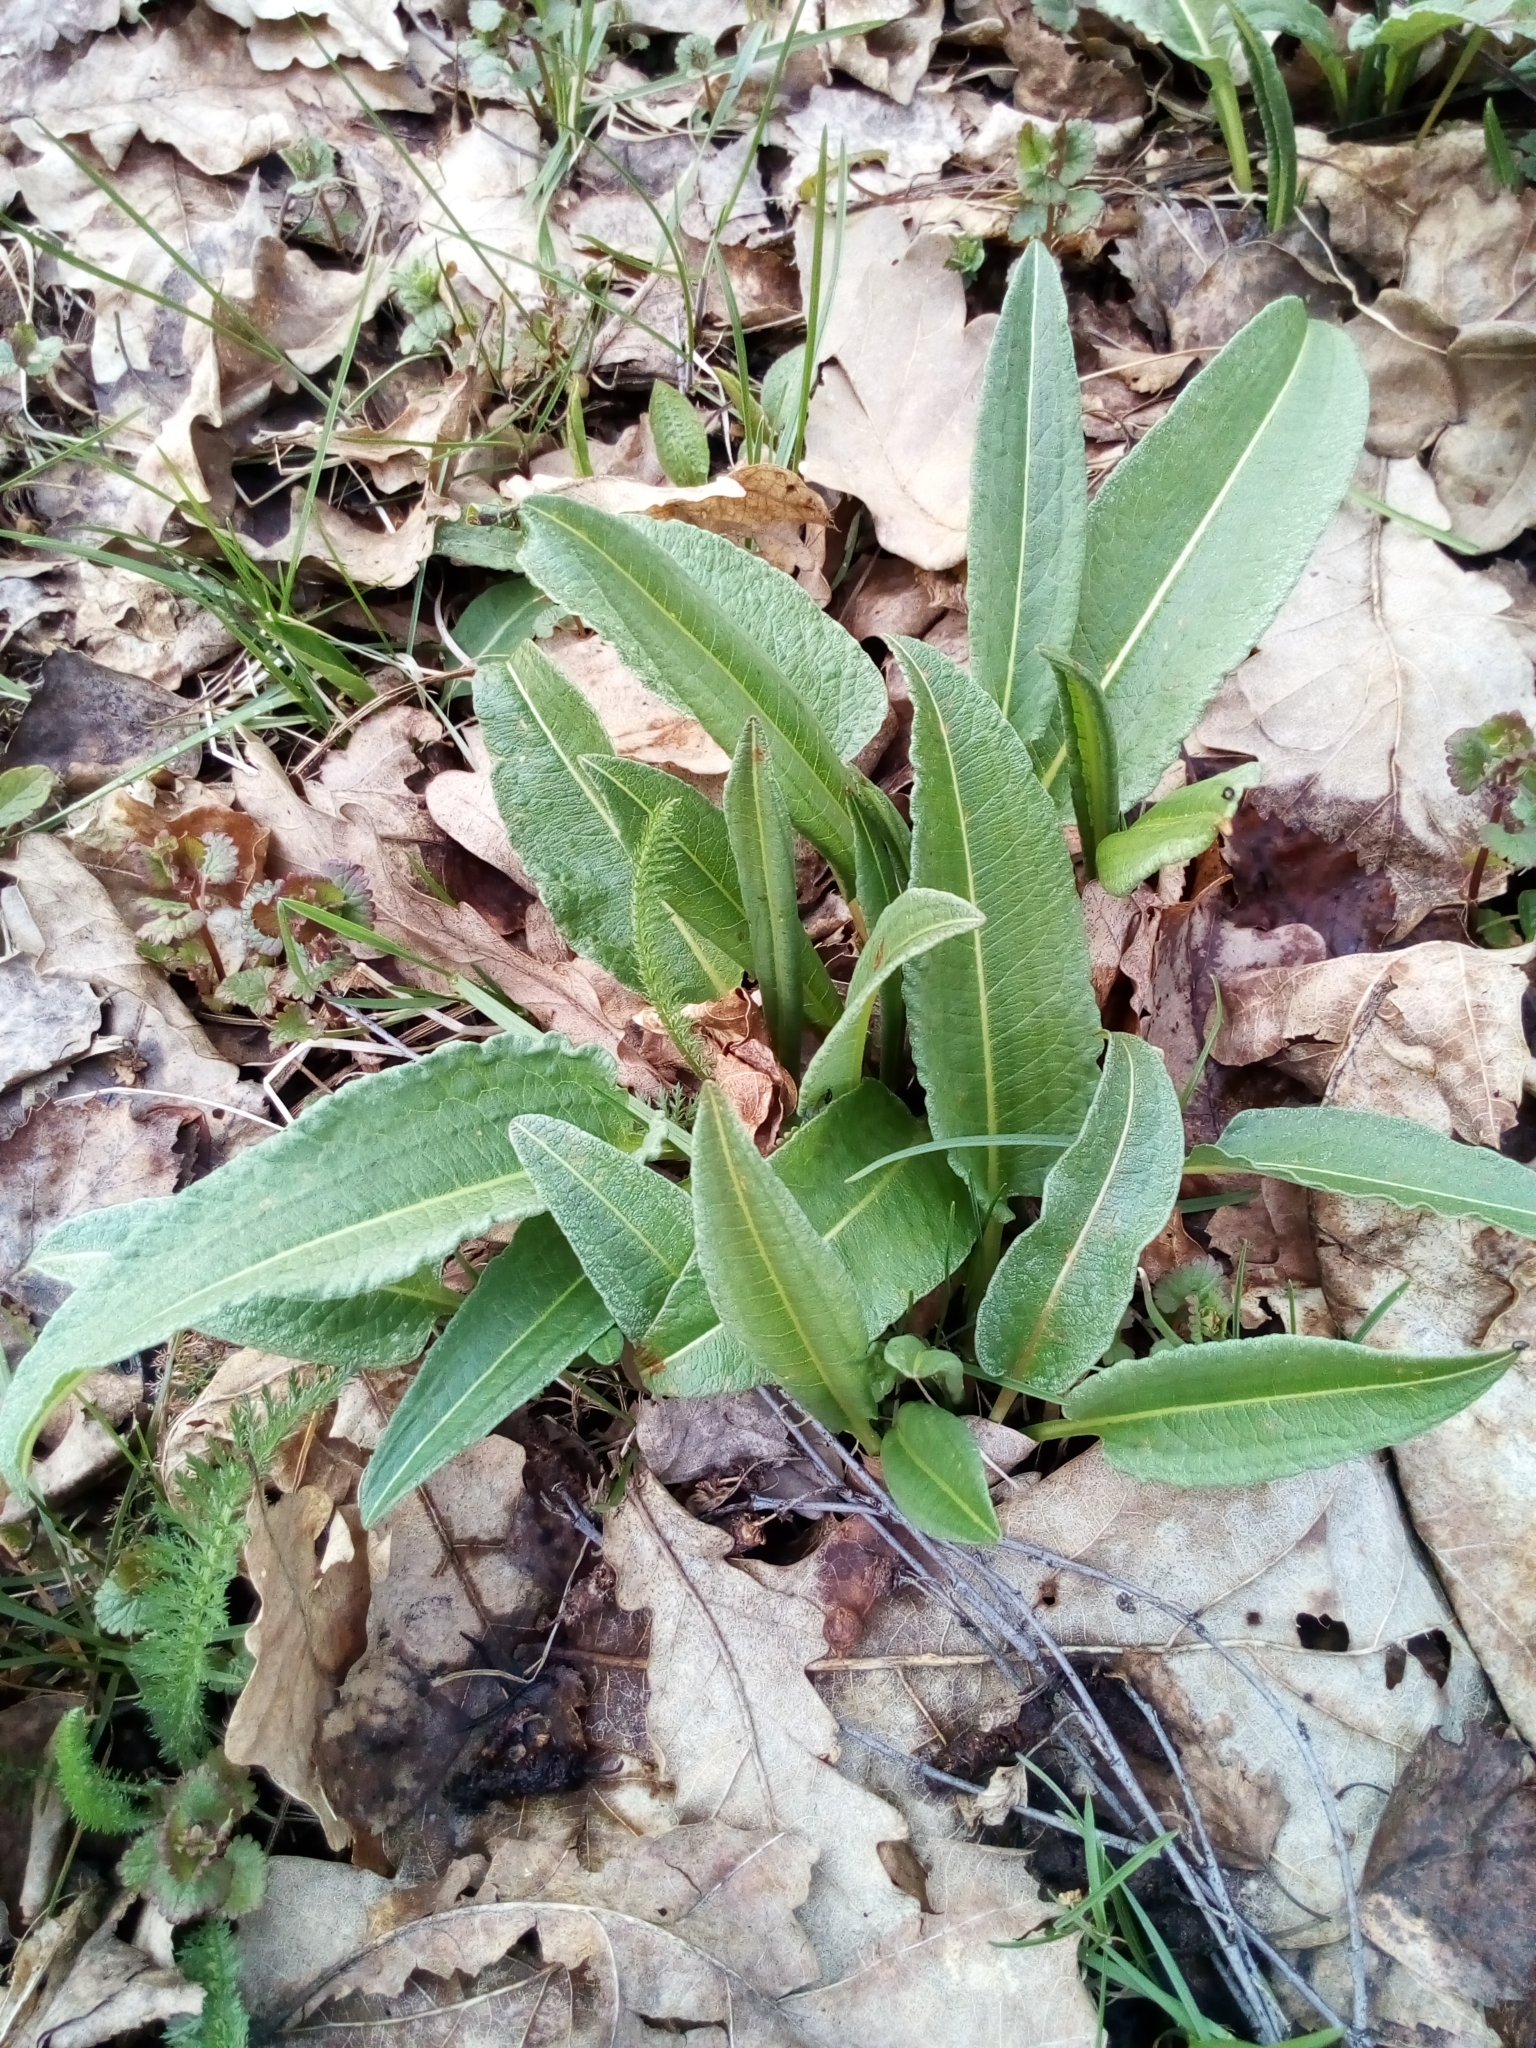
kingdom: Plantae
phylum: Tracheophyta
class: Magnoliopsida
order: Caryophyllales
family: Polygonaceae
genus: Bistorta
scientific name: Bistorta officinalis
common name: Common bistort
